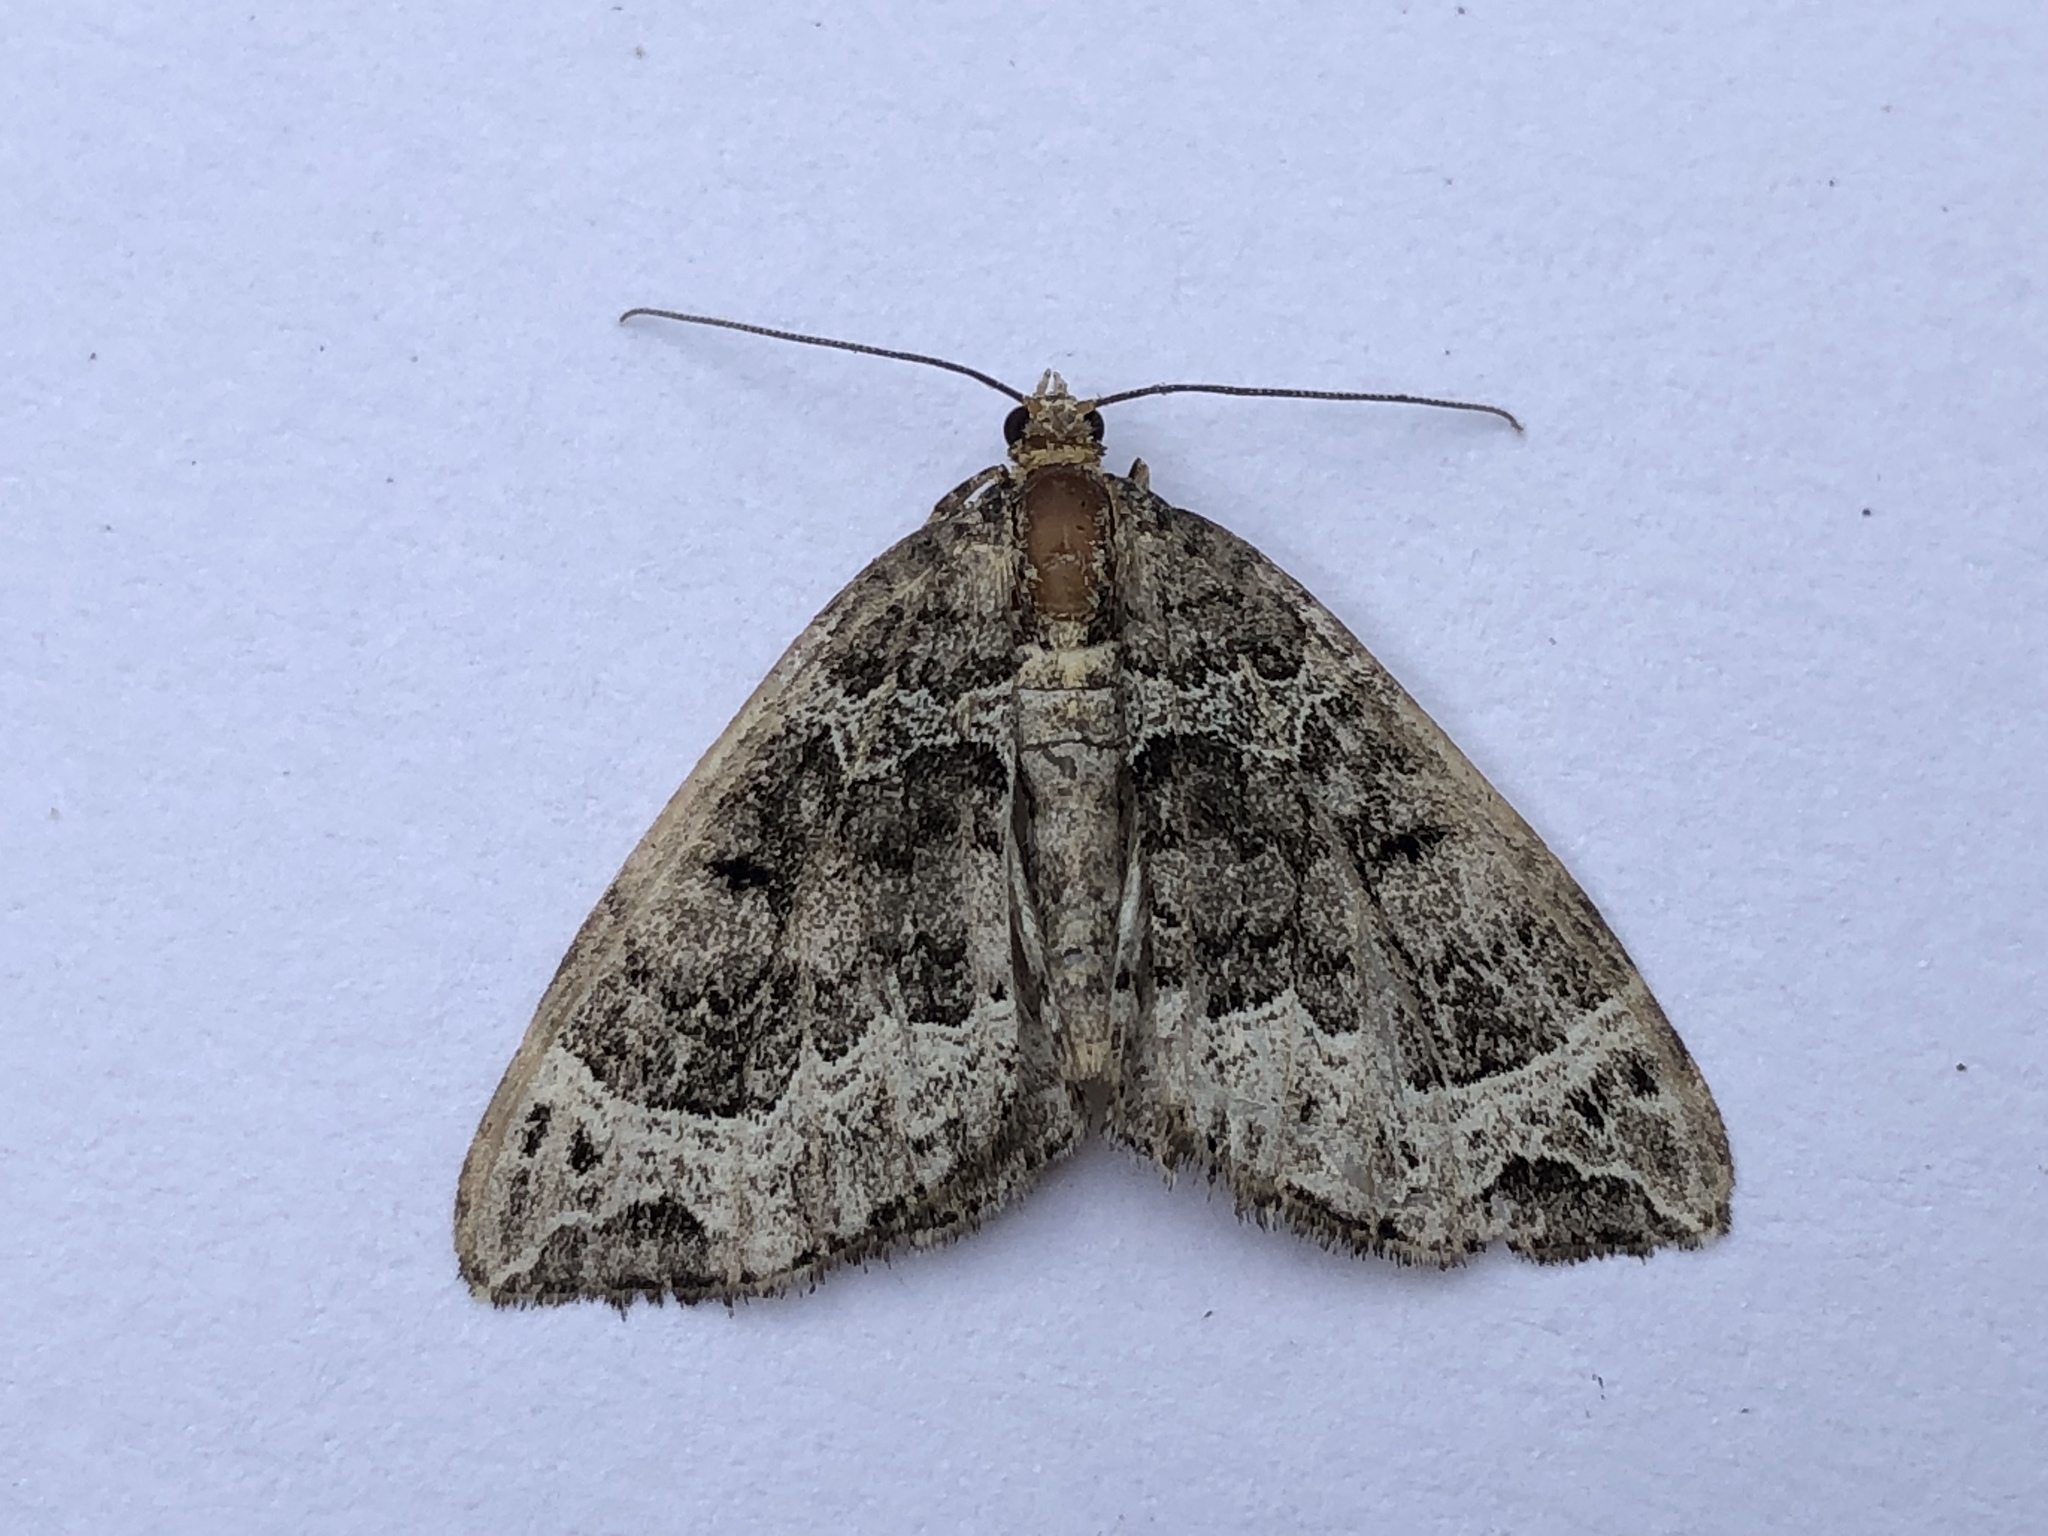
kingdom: Animalia
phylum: Arthropoda
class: Insecta
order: Lepidoptera
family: Geometridae
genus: Ecliptopera
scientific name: Ecliptopera silaceata
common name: Small phoenix
